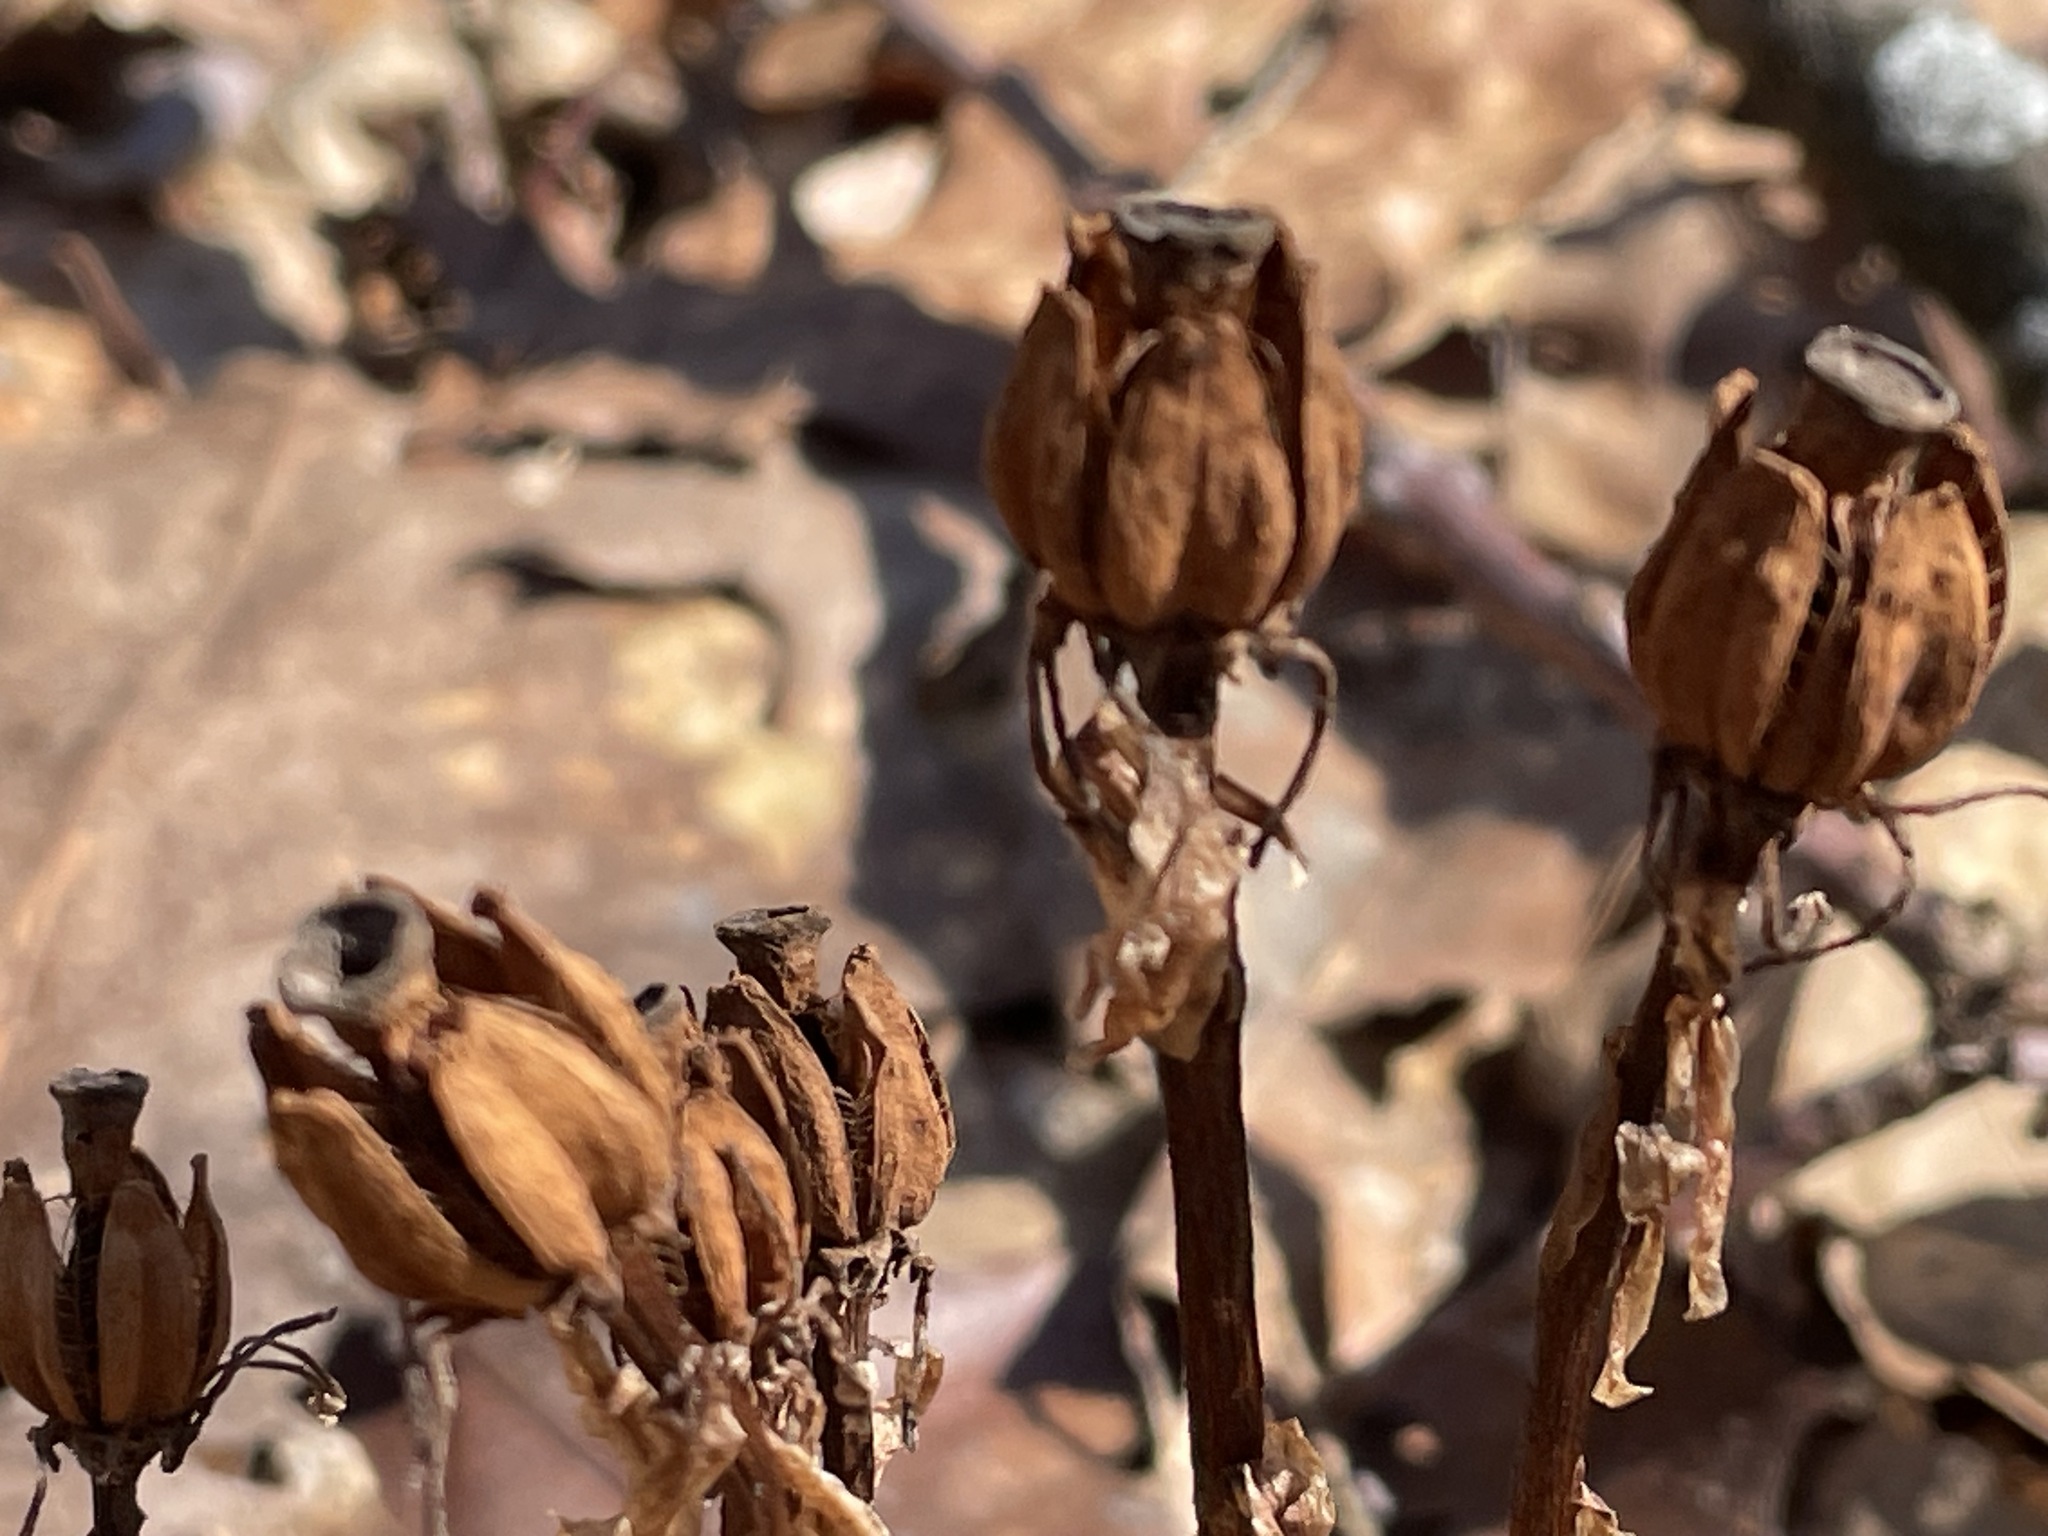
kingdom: Plantae
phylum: Tracheophyta
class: Magnoliopsida
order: Ericales
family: Ericaceae
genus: Monotropa
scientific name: Monotropa uniflora
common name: Convulsion root
